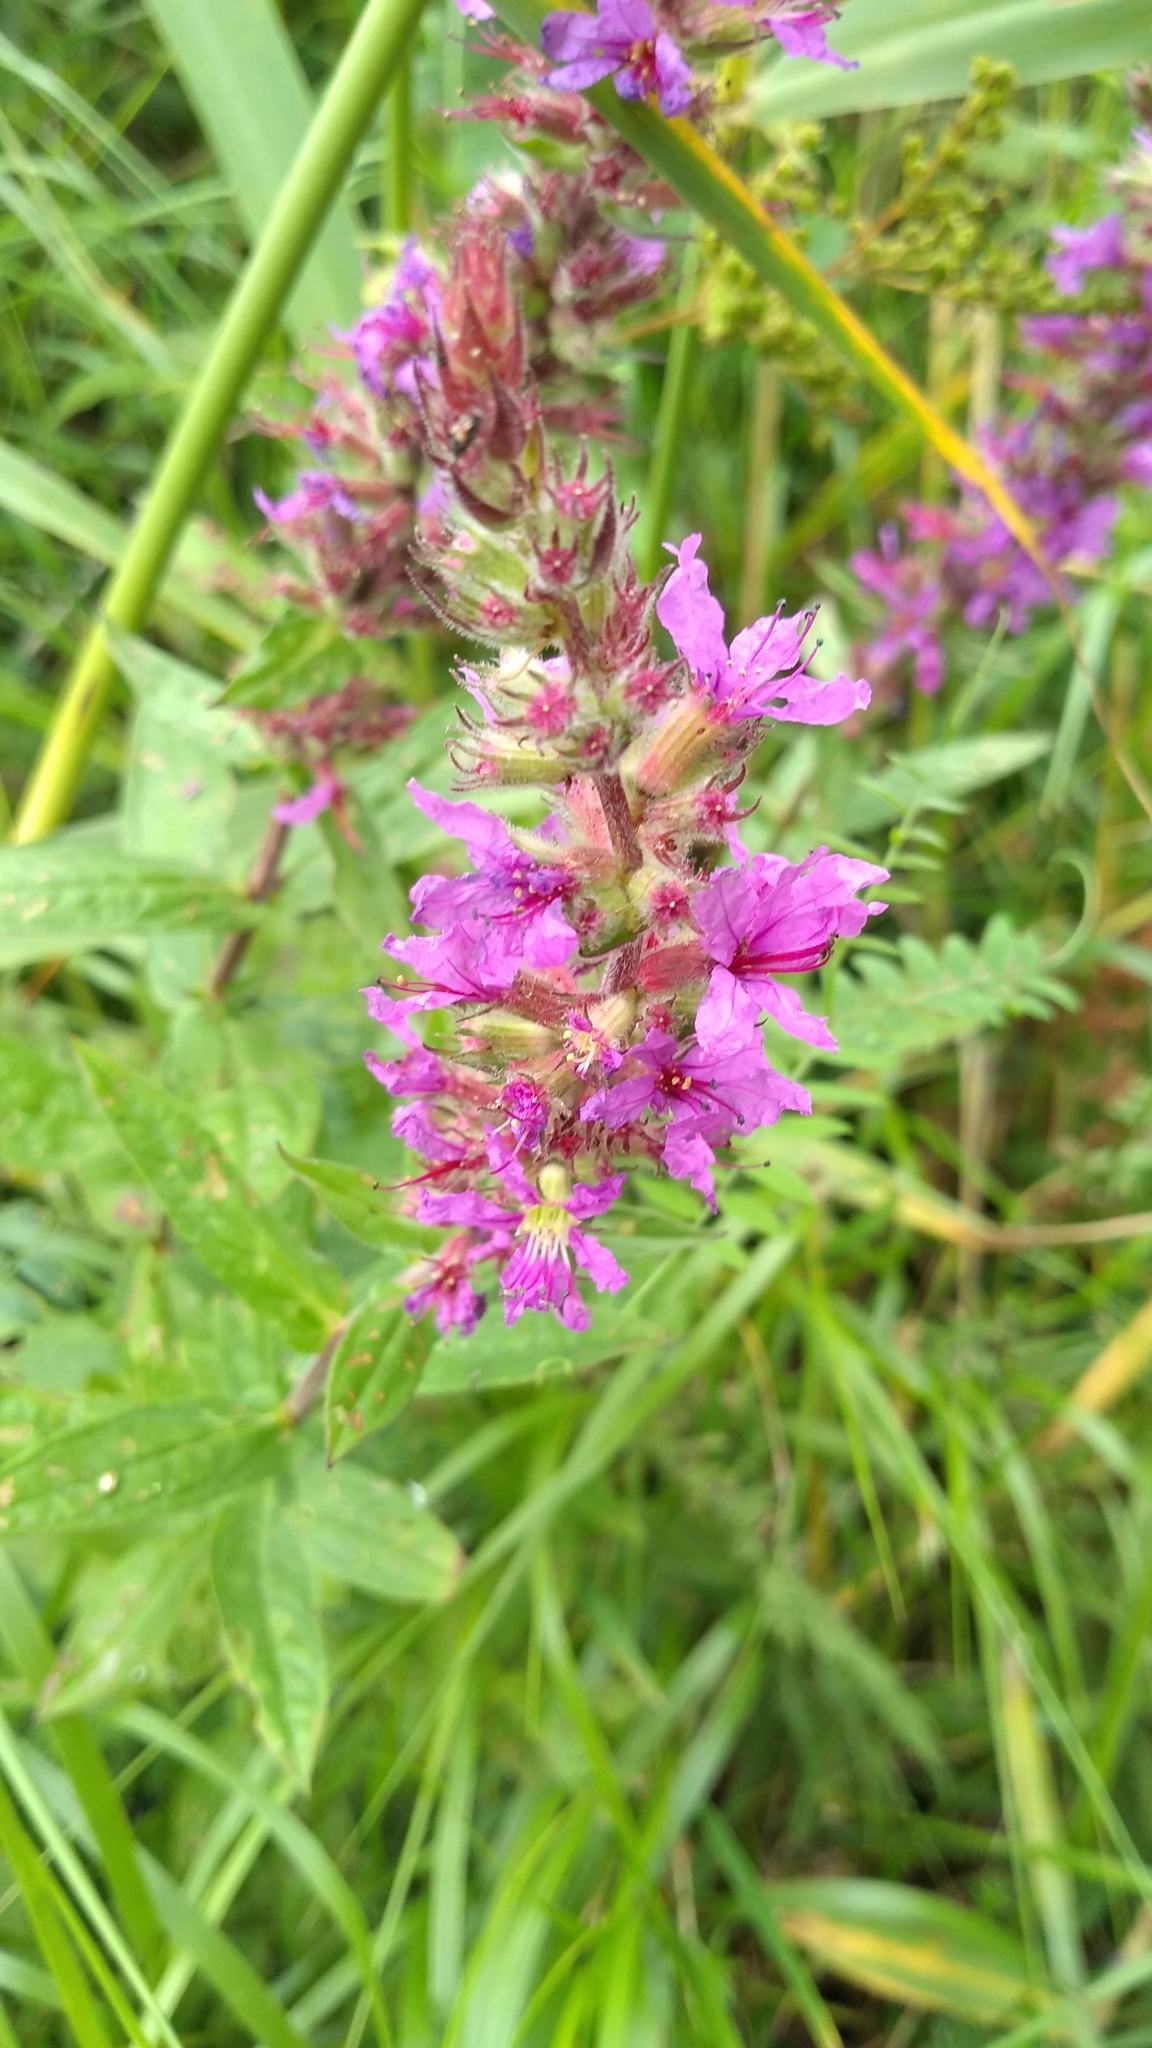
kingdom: Plantae
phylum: Tracheophyta
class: Magnoliopsida
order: Myrtales
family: Lythraceae
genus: Lythrum
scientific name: Lythrum salicaria
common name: Purple loosestrife
